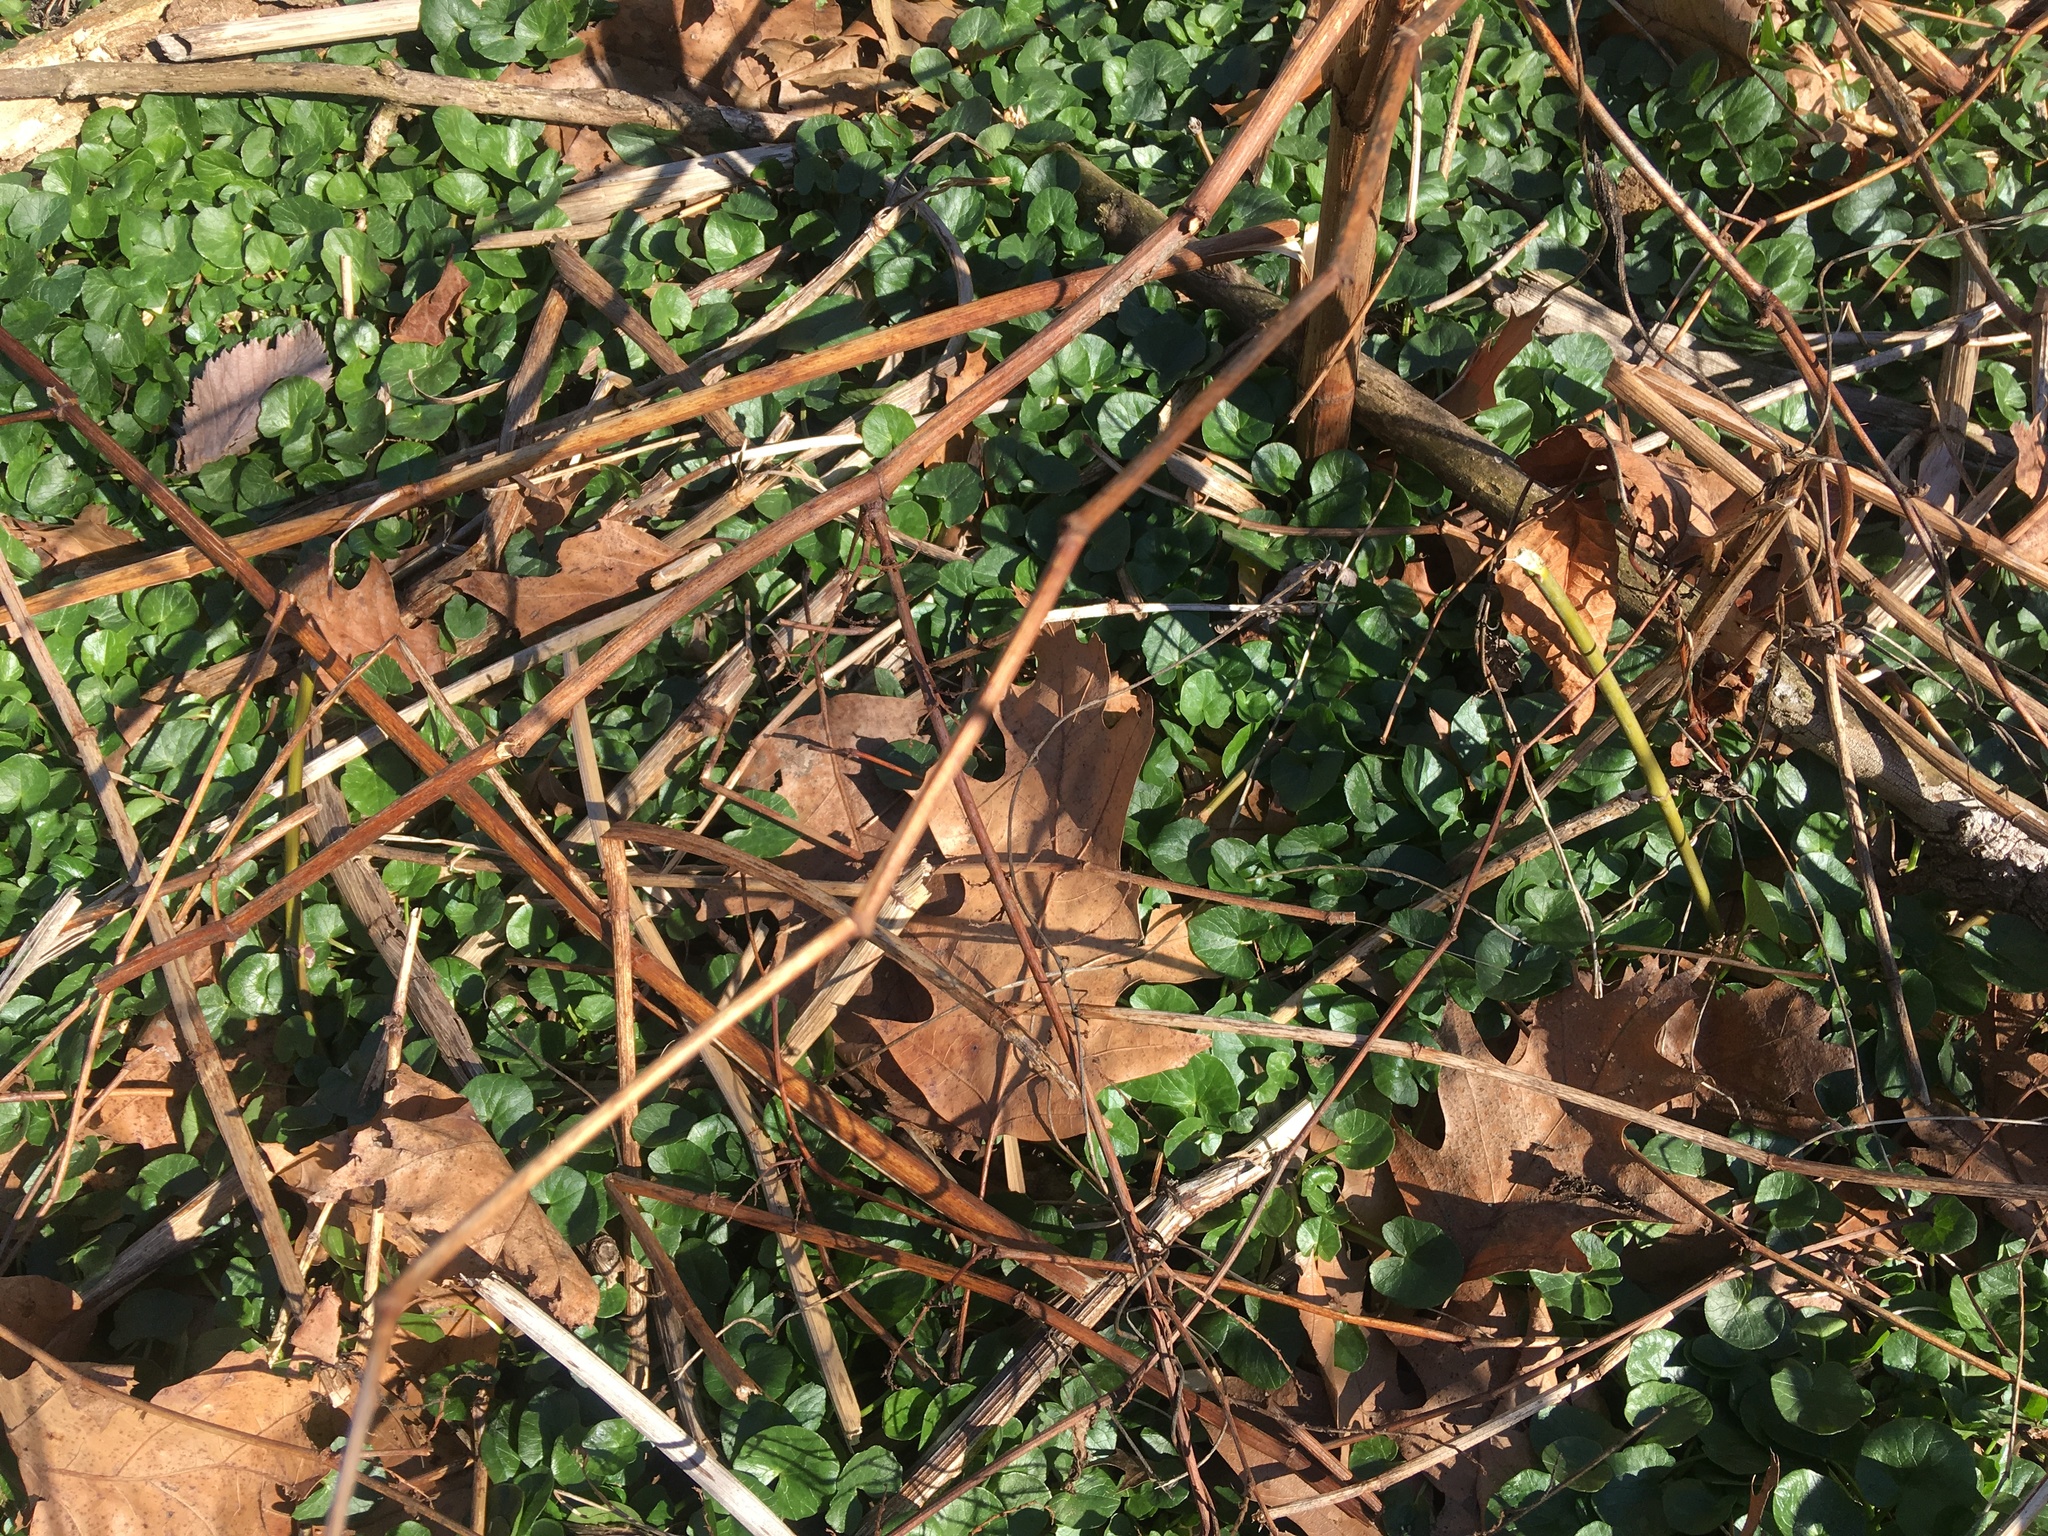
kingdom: Plantae
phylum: Tracheophyta
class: Magnoliopsida
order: Ranunculales
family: Ranunculaceae
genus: Ficaria
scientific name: Ficaria verna
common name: Lesser celandine
